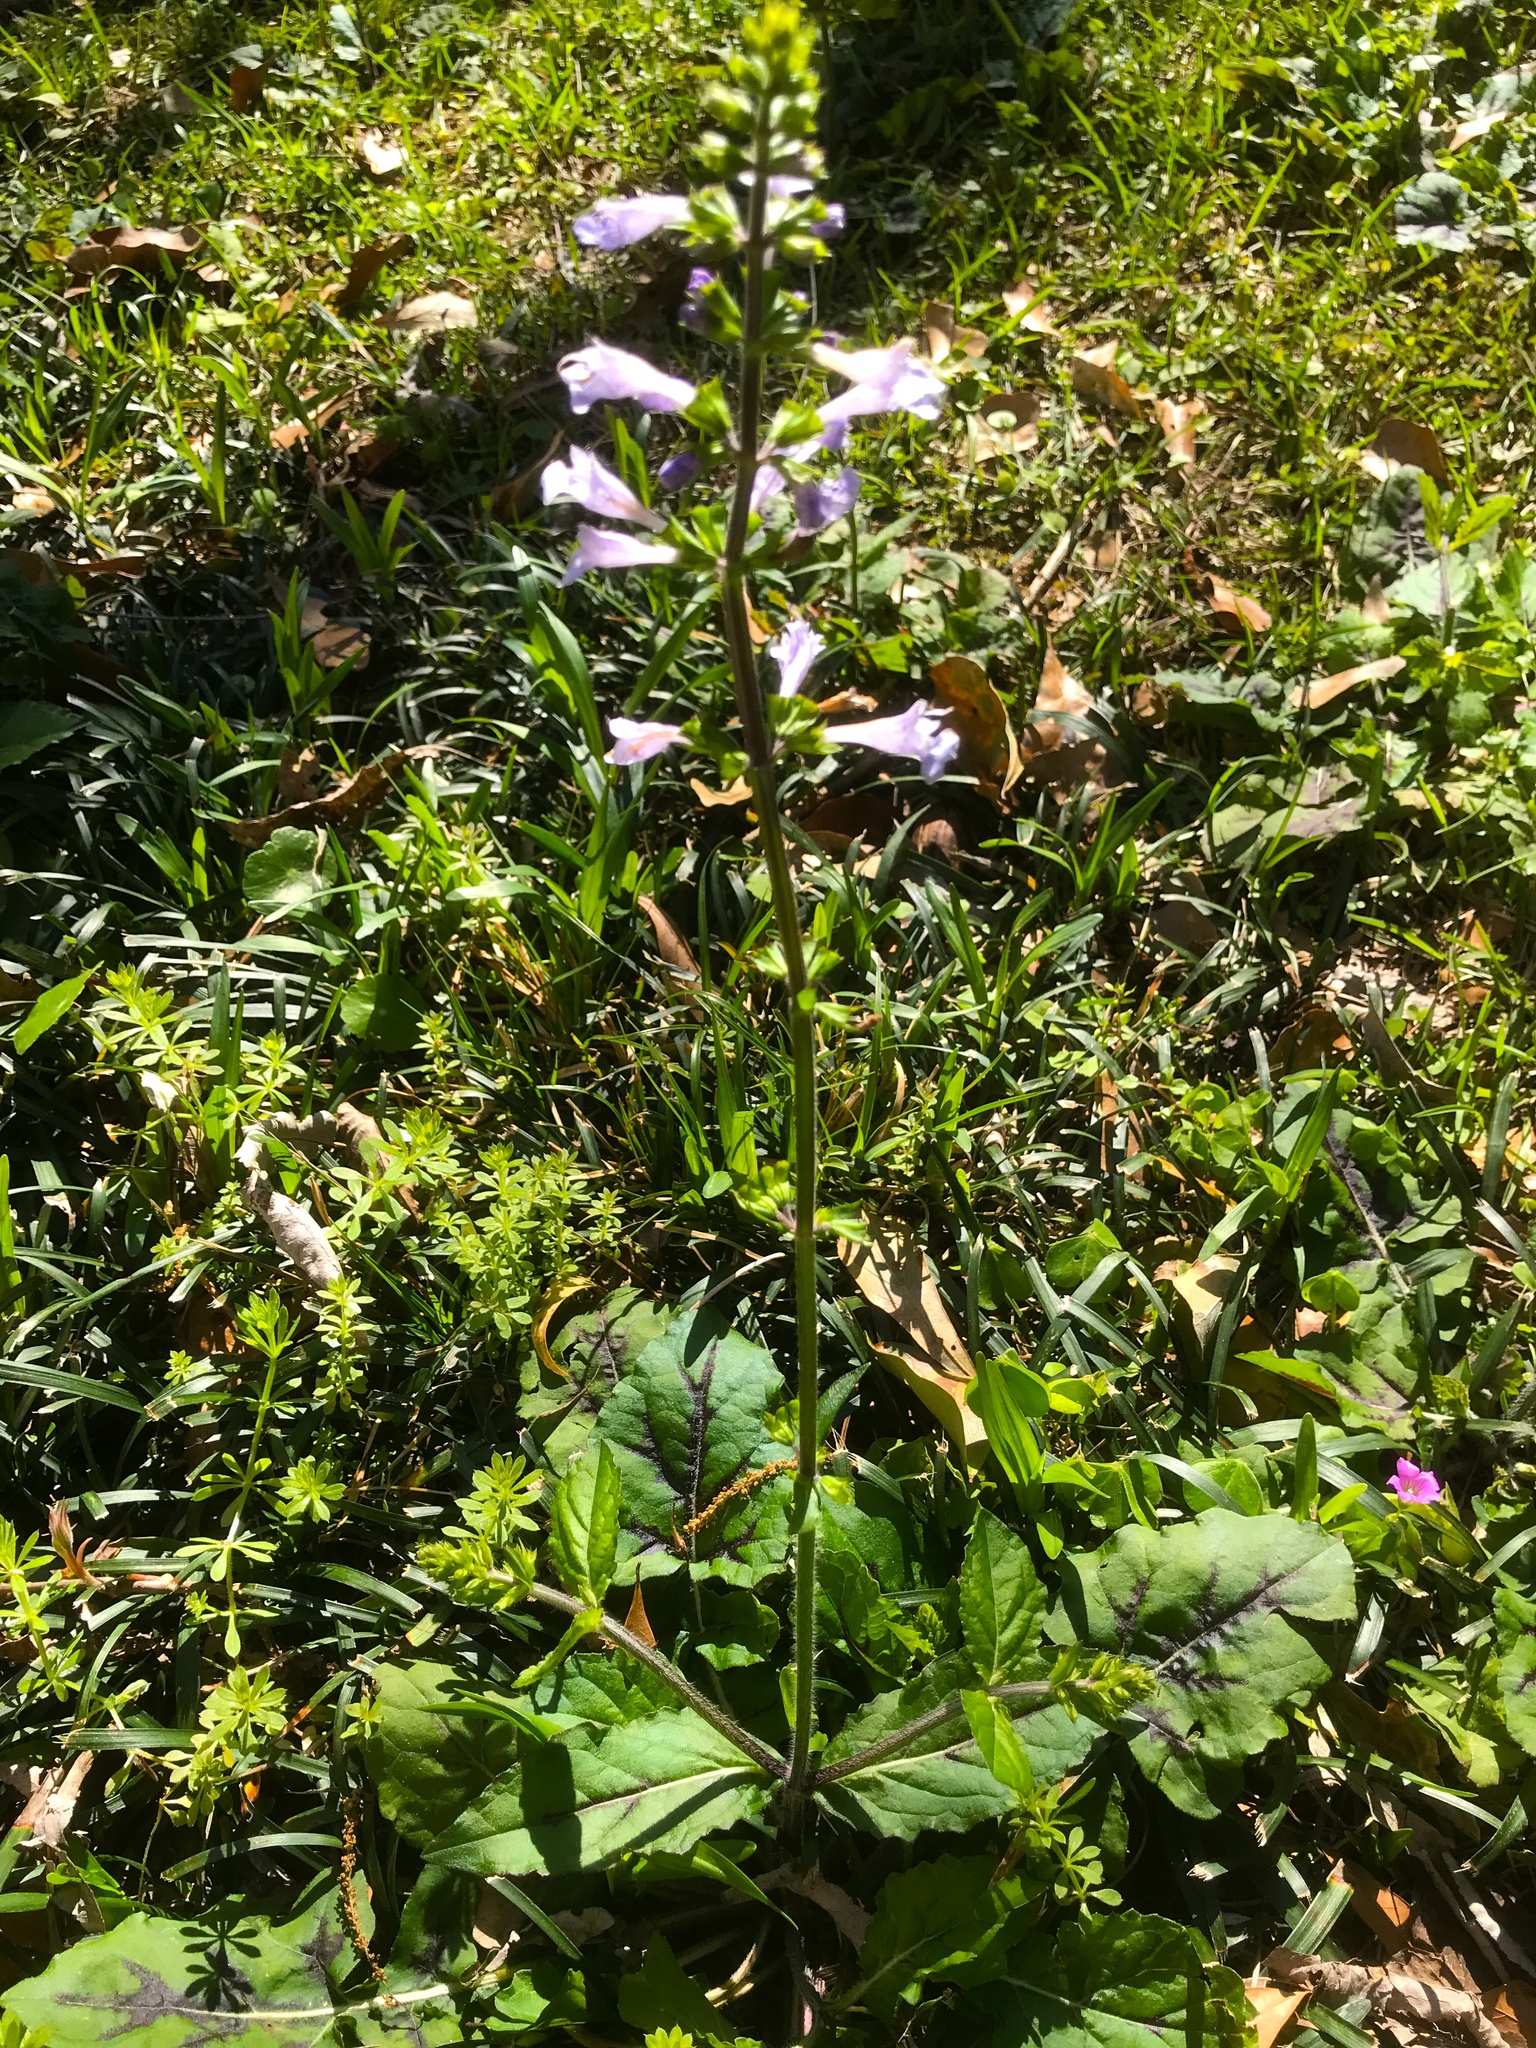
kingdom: Plantae
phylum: Tracheophyta
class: Magnoliopsida
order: Lamiales
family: Lamiaceae
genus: Salvia
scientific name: Salvia lyrata
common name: Cancerweed
